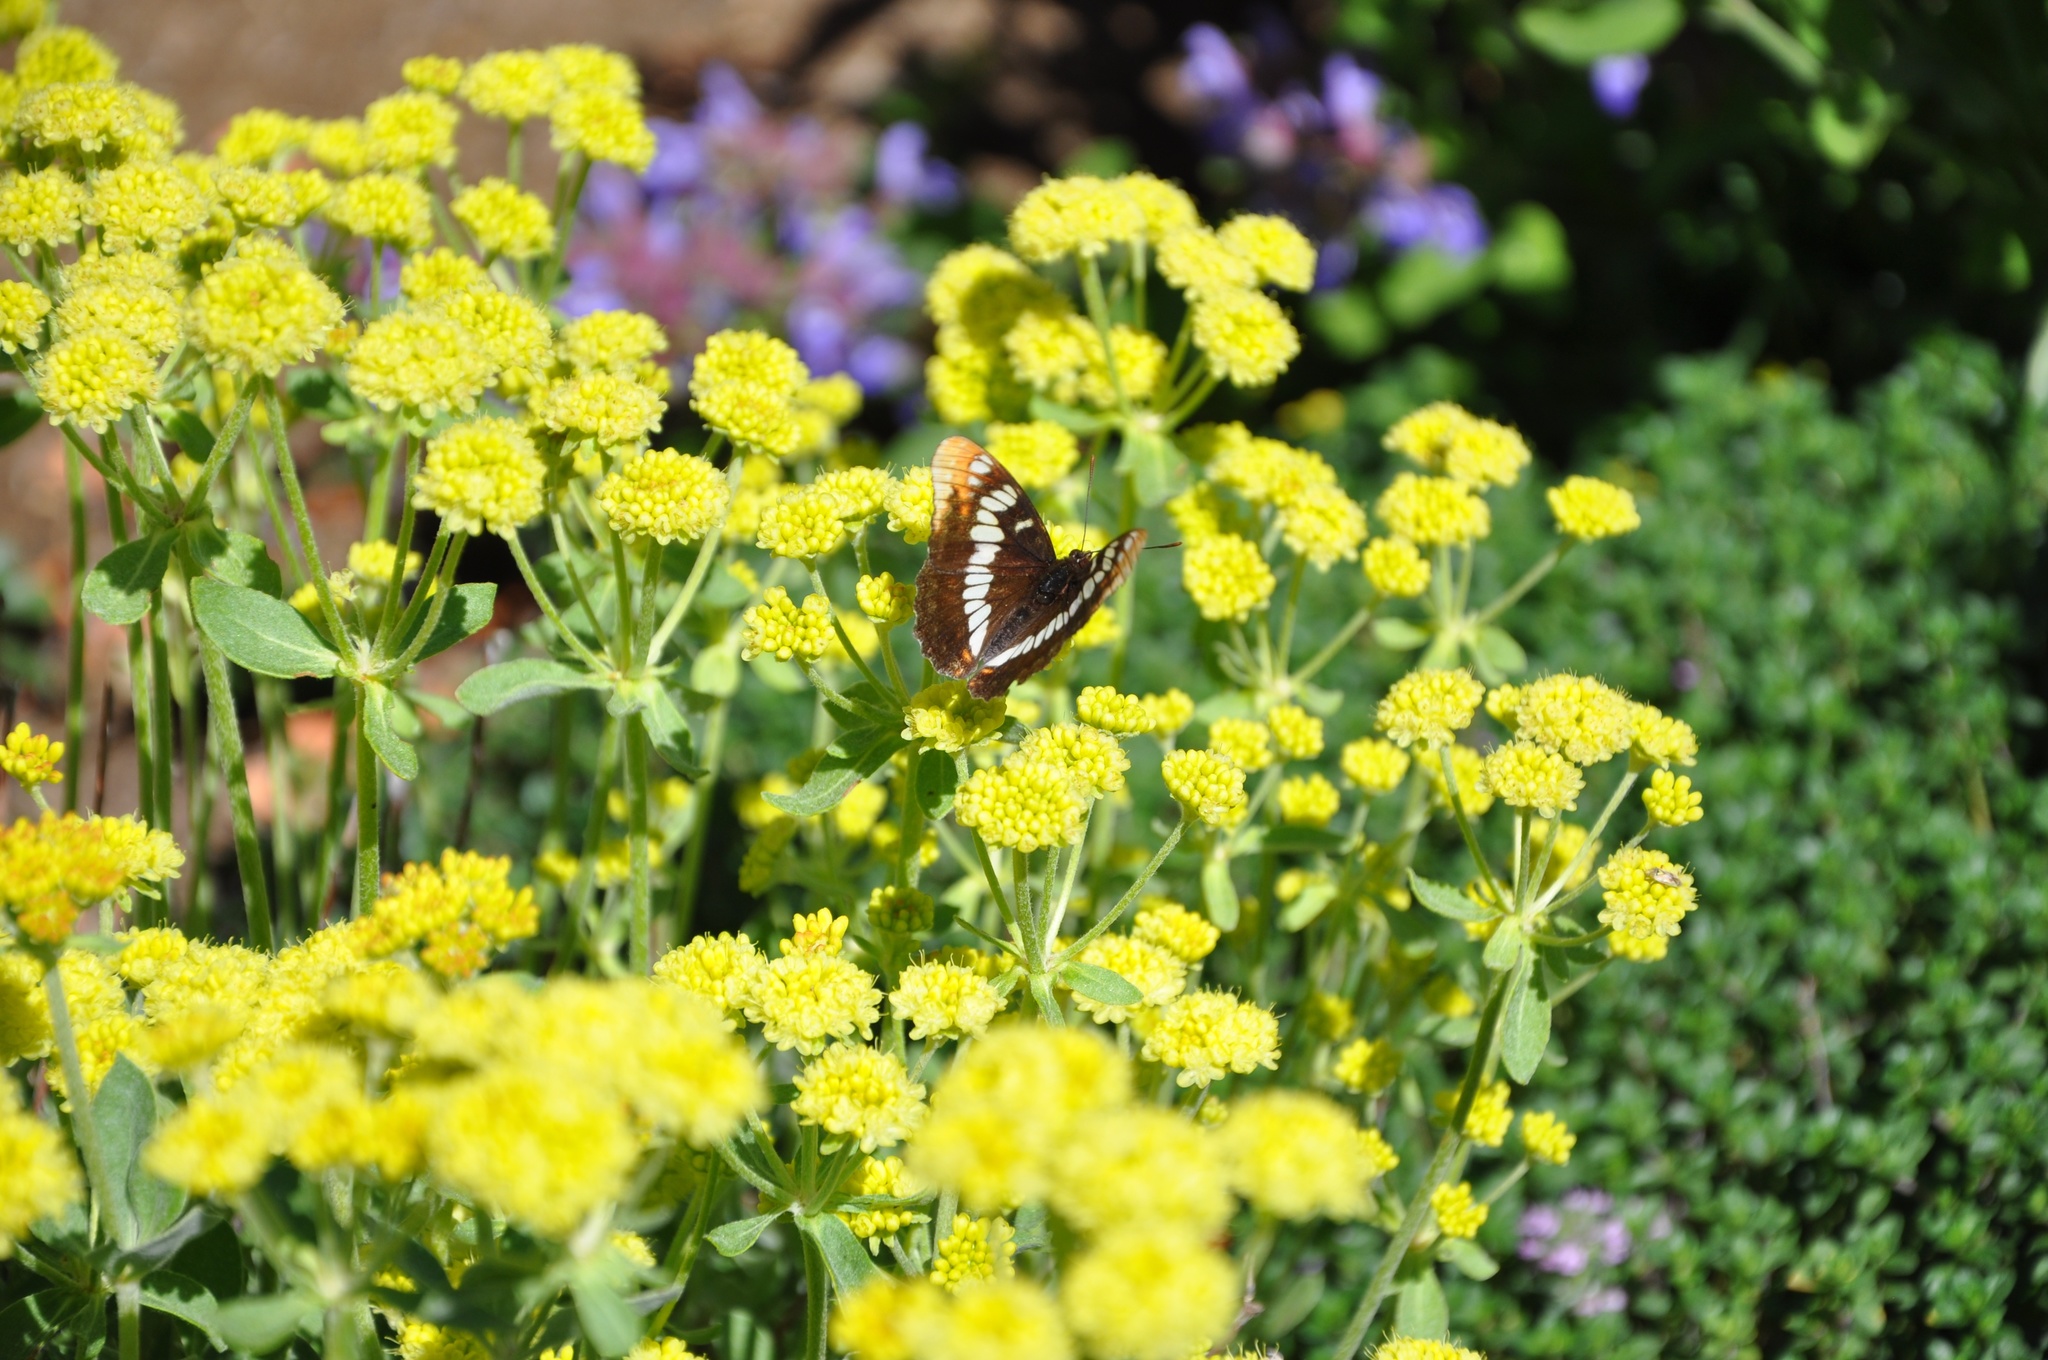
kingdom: Animalia
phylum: Arthropoda
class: Insecta
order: Lepidoptera
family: Nymphalidae
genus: Limenitis
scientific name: Limenitis lorquini
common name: Lorquin's admiral
